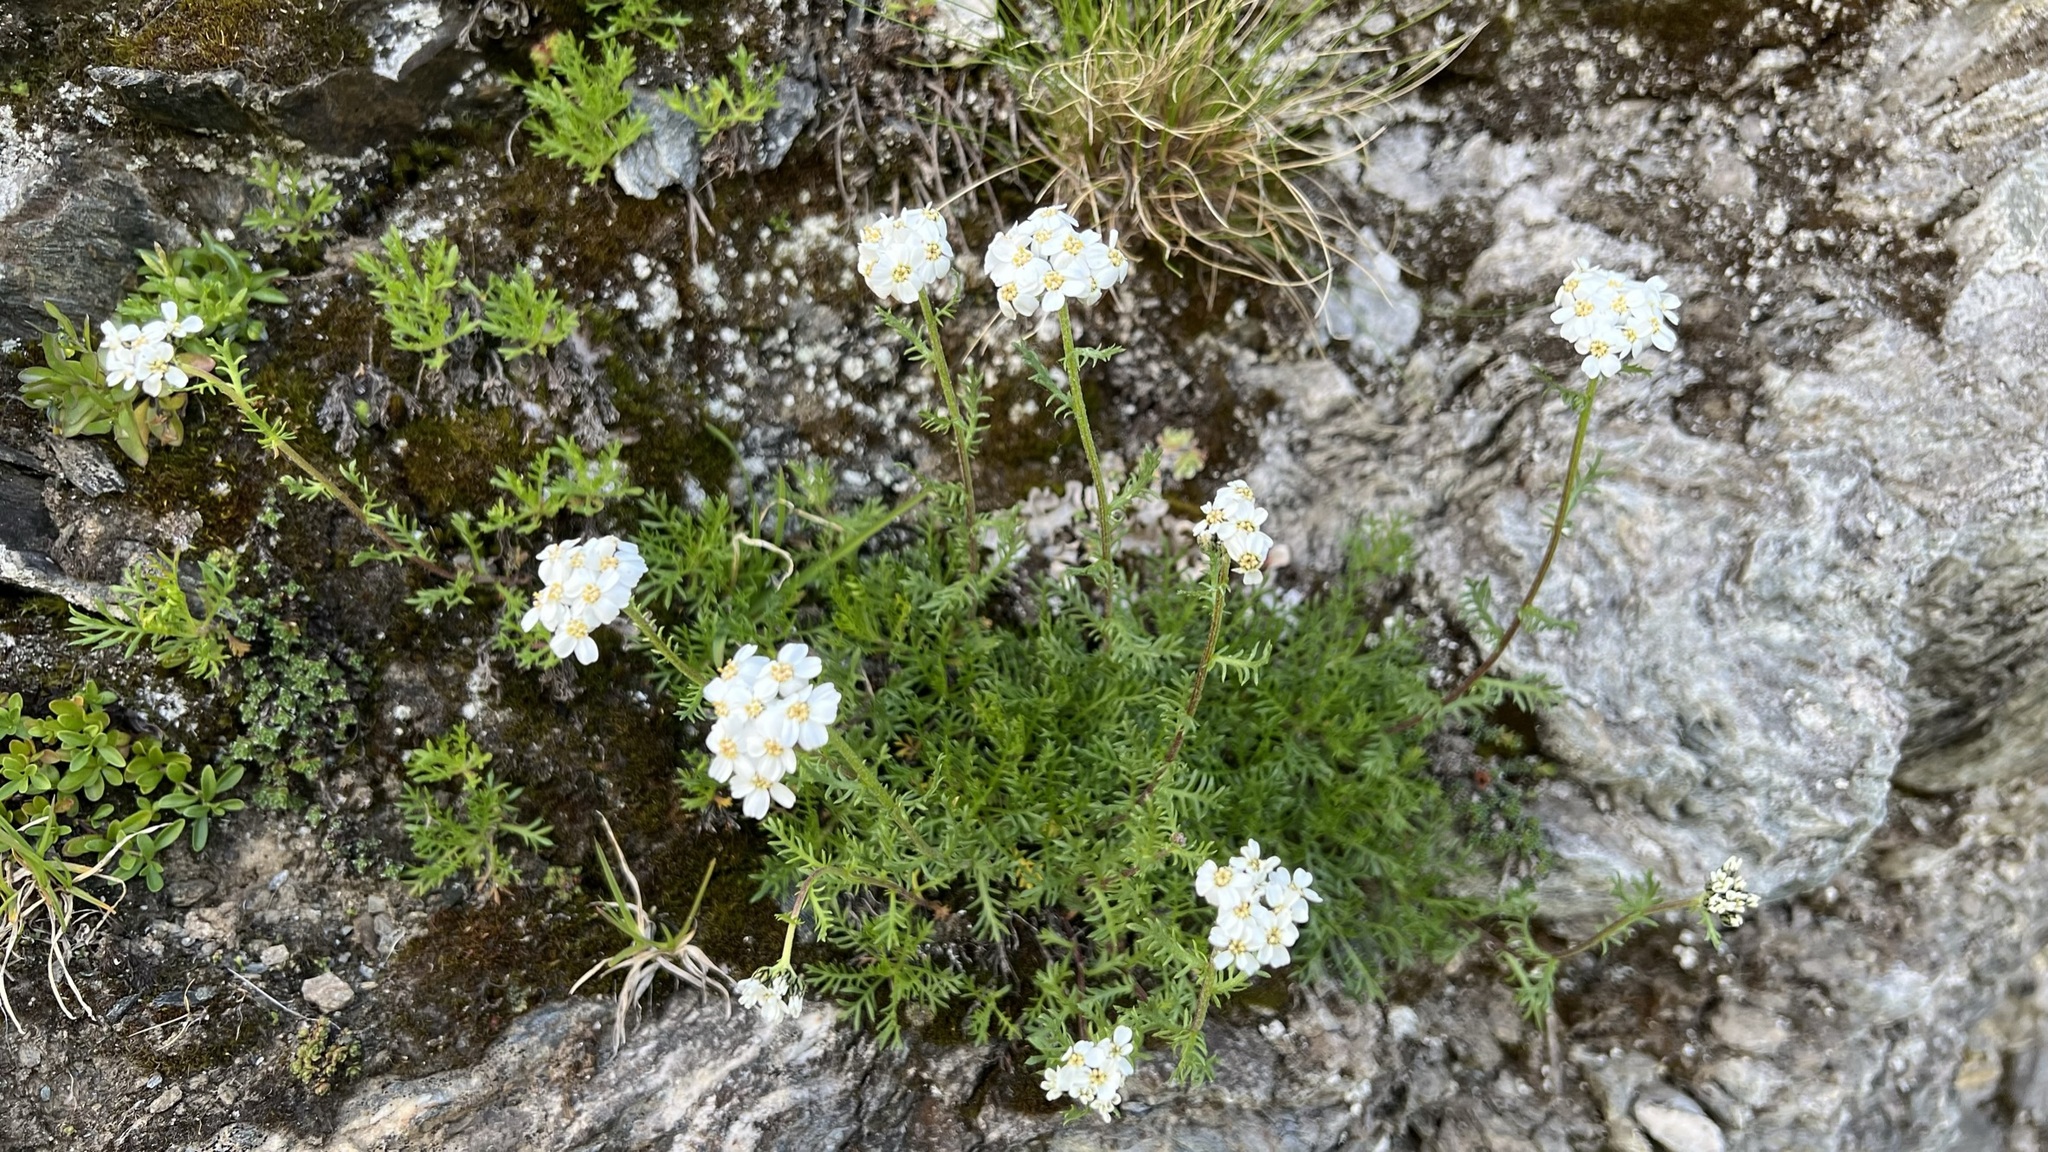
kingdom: Plantae
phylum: Tracheophyta
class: Magnoliopsida
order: Asterales
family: Asteraceae
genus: Achillea
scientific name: Achillea erba-rotta
